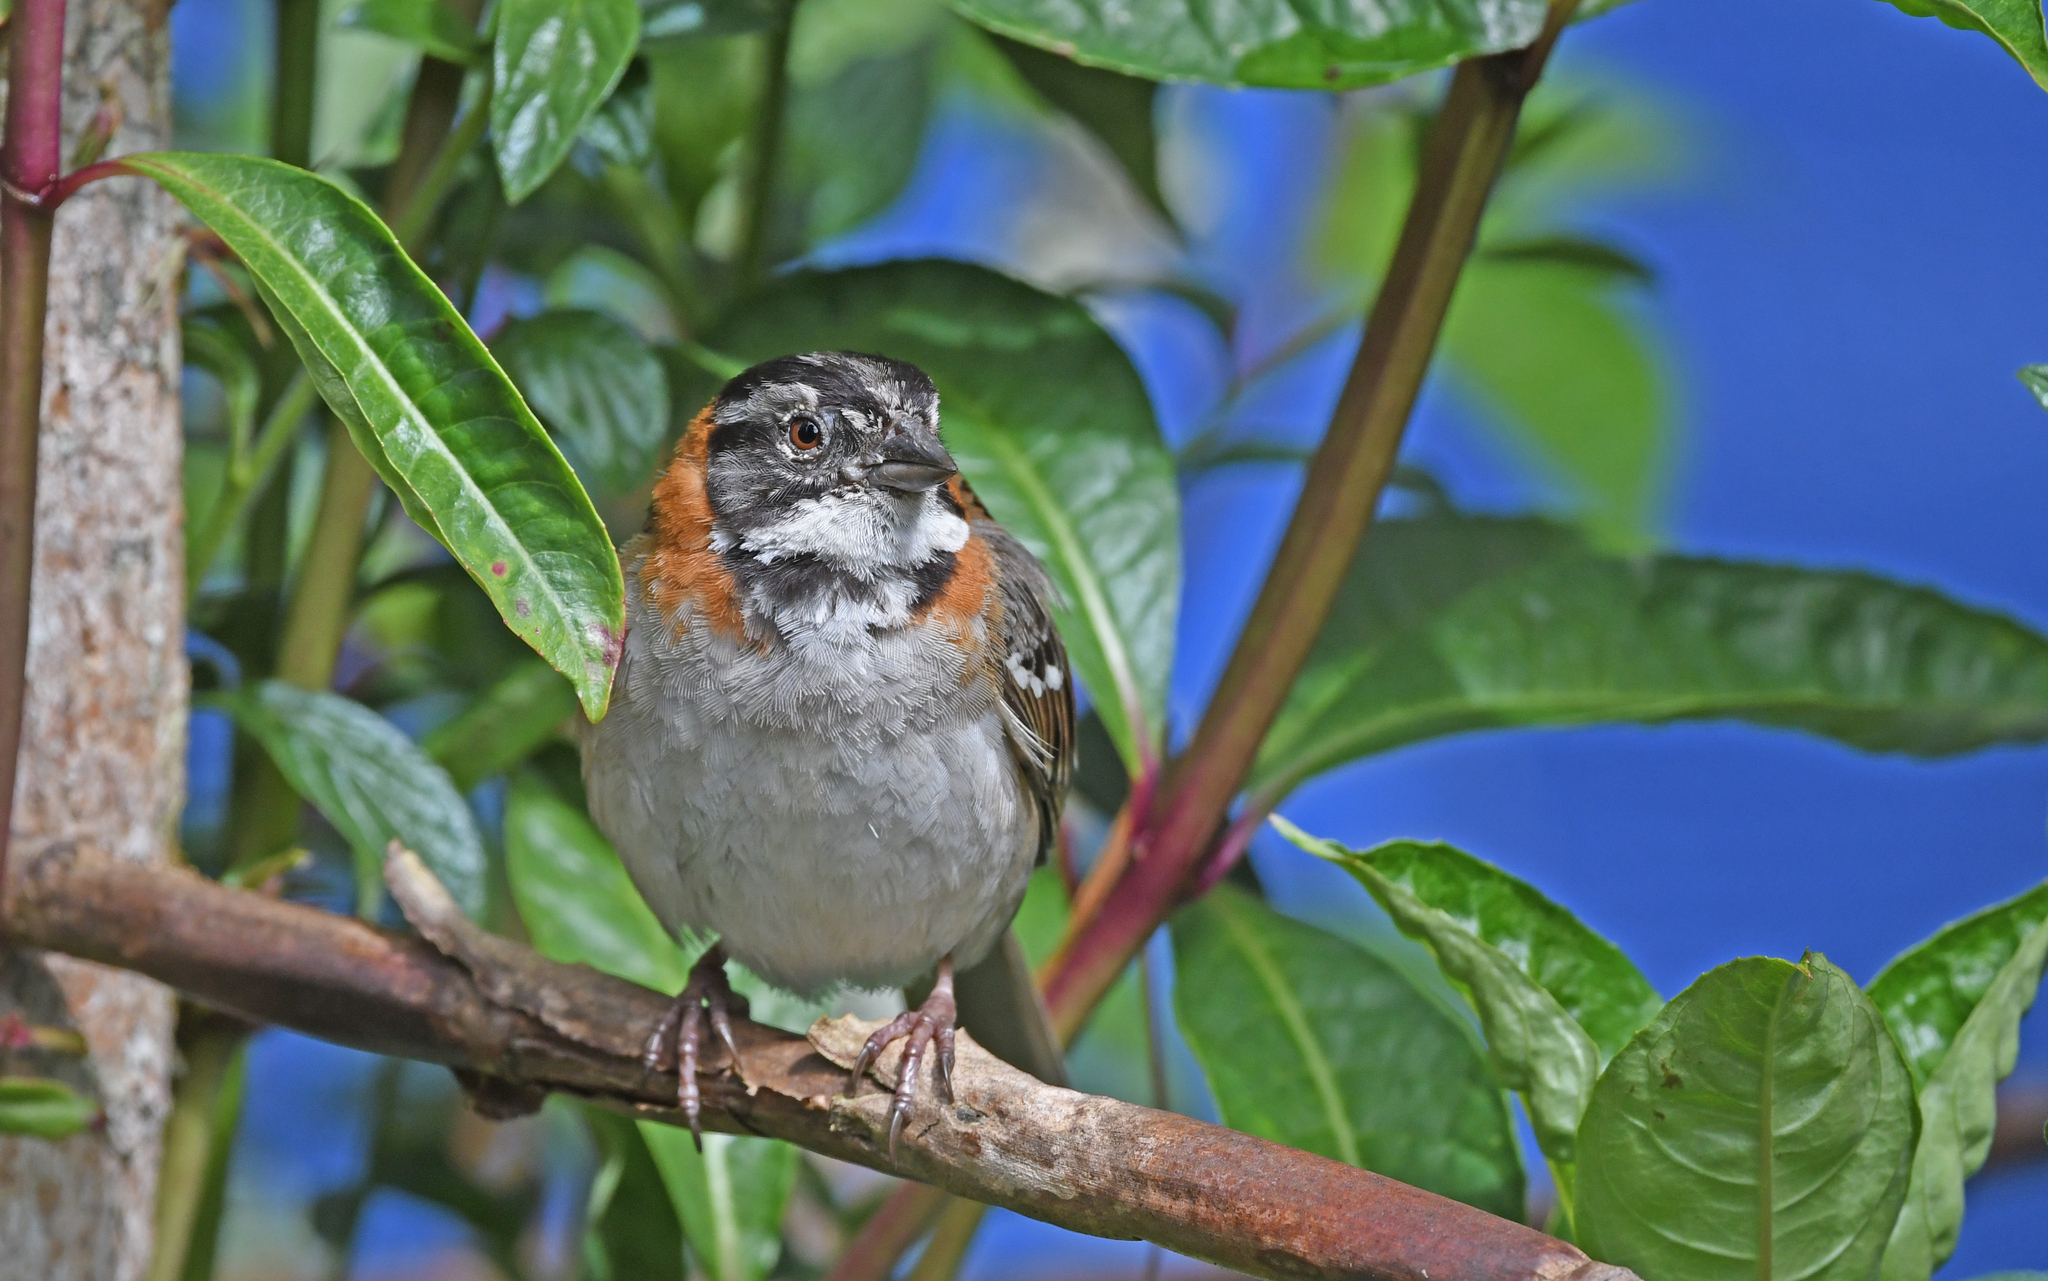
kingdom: Animalia
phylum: Chordata
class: Aves
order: Passeriformes
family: Passerellidae
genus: Zonotrichia
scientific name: Zonotrichia capensis
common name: Rufous-collared sparrow
